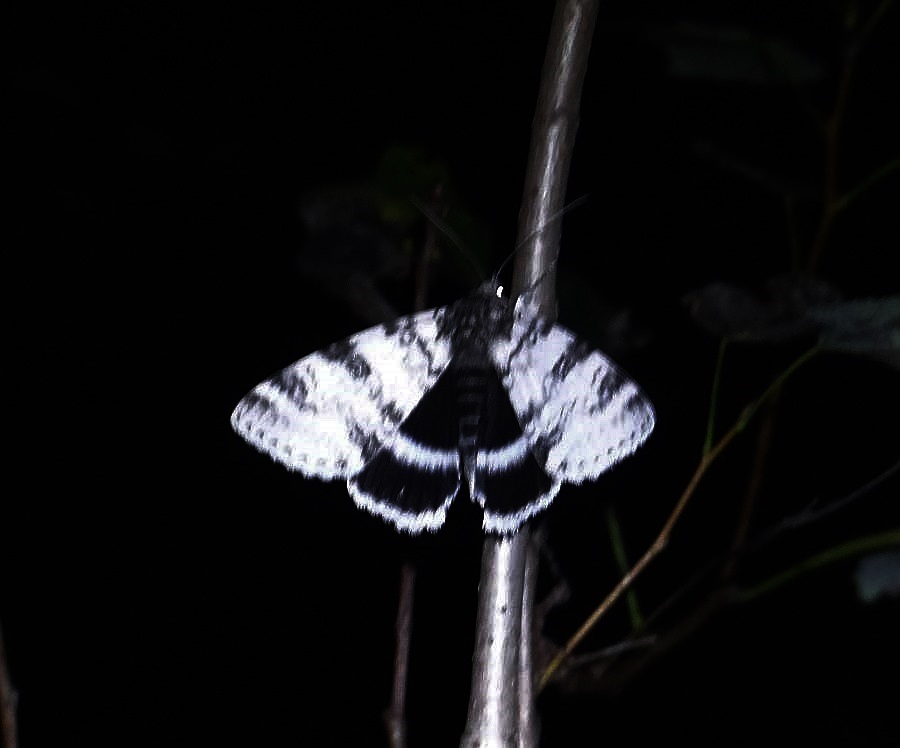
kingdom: Animalia
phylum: Arthropoda
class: Insecta
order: Lepidoptera
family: Erebidae
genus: Catocala
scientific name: Catocala relicta
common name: White underwing
